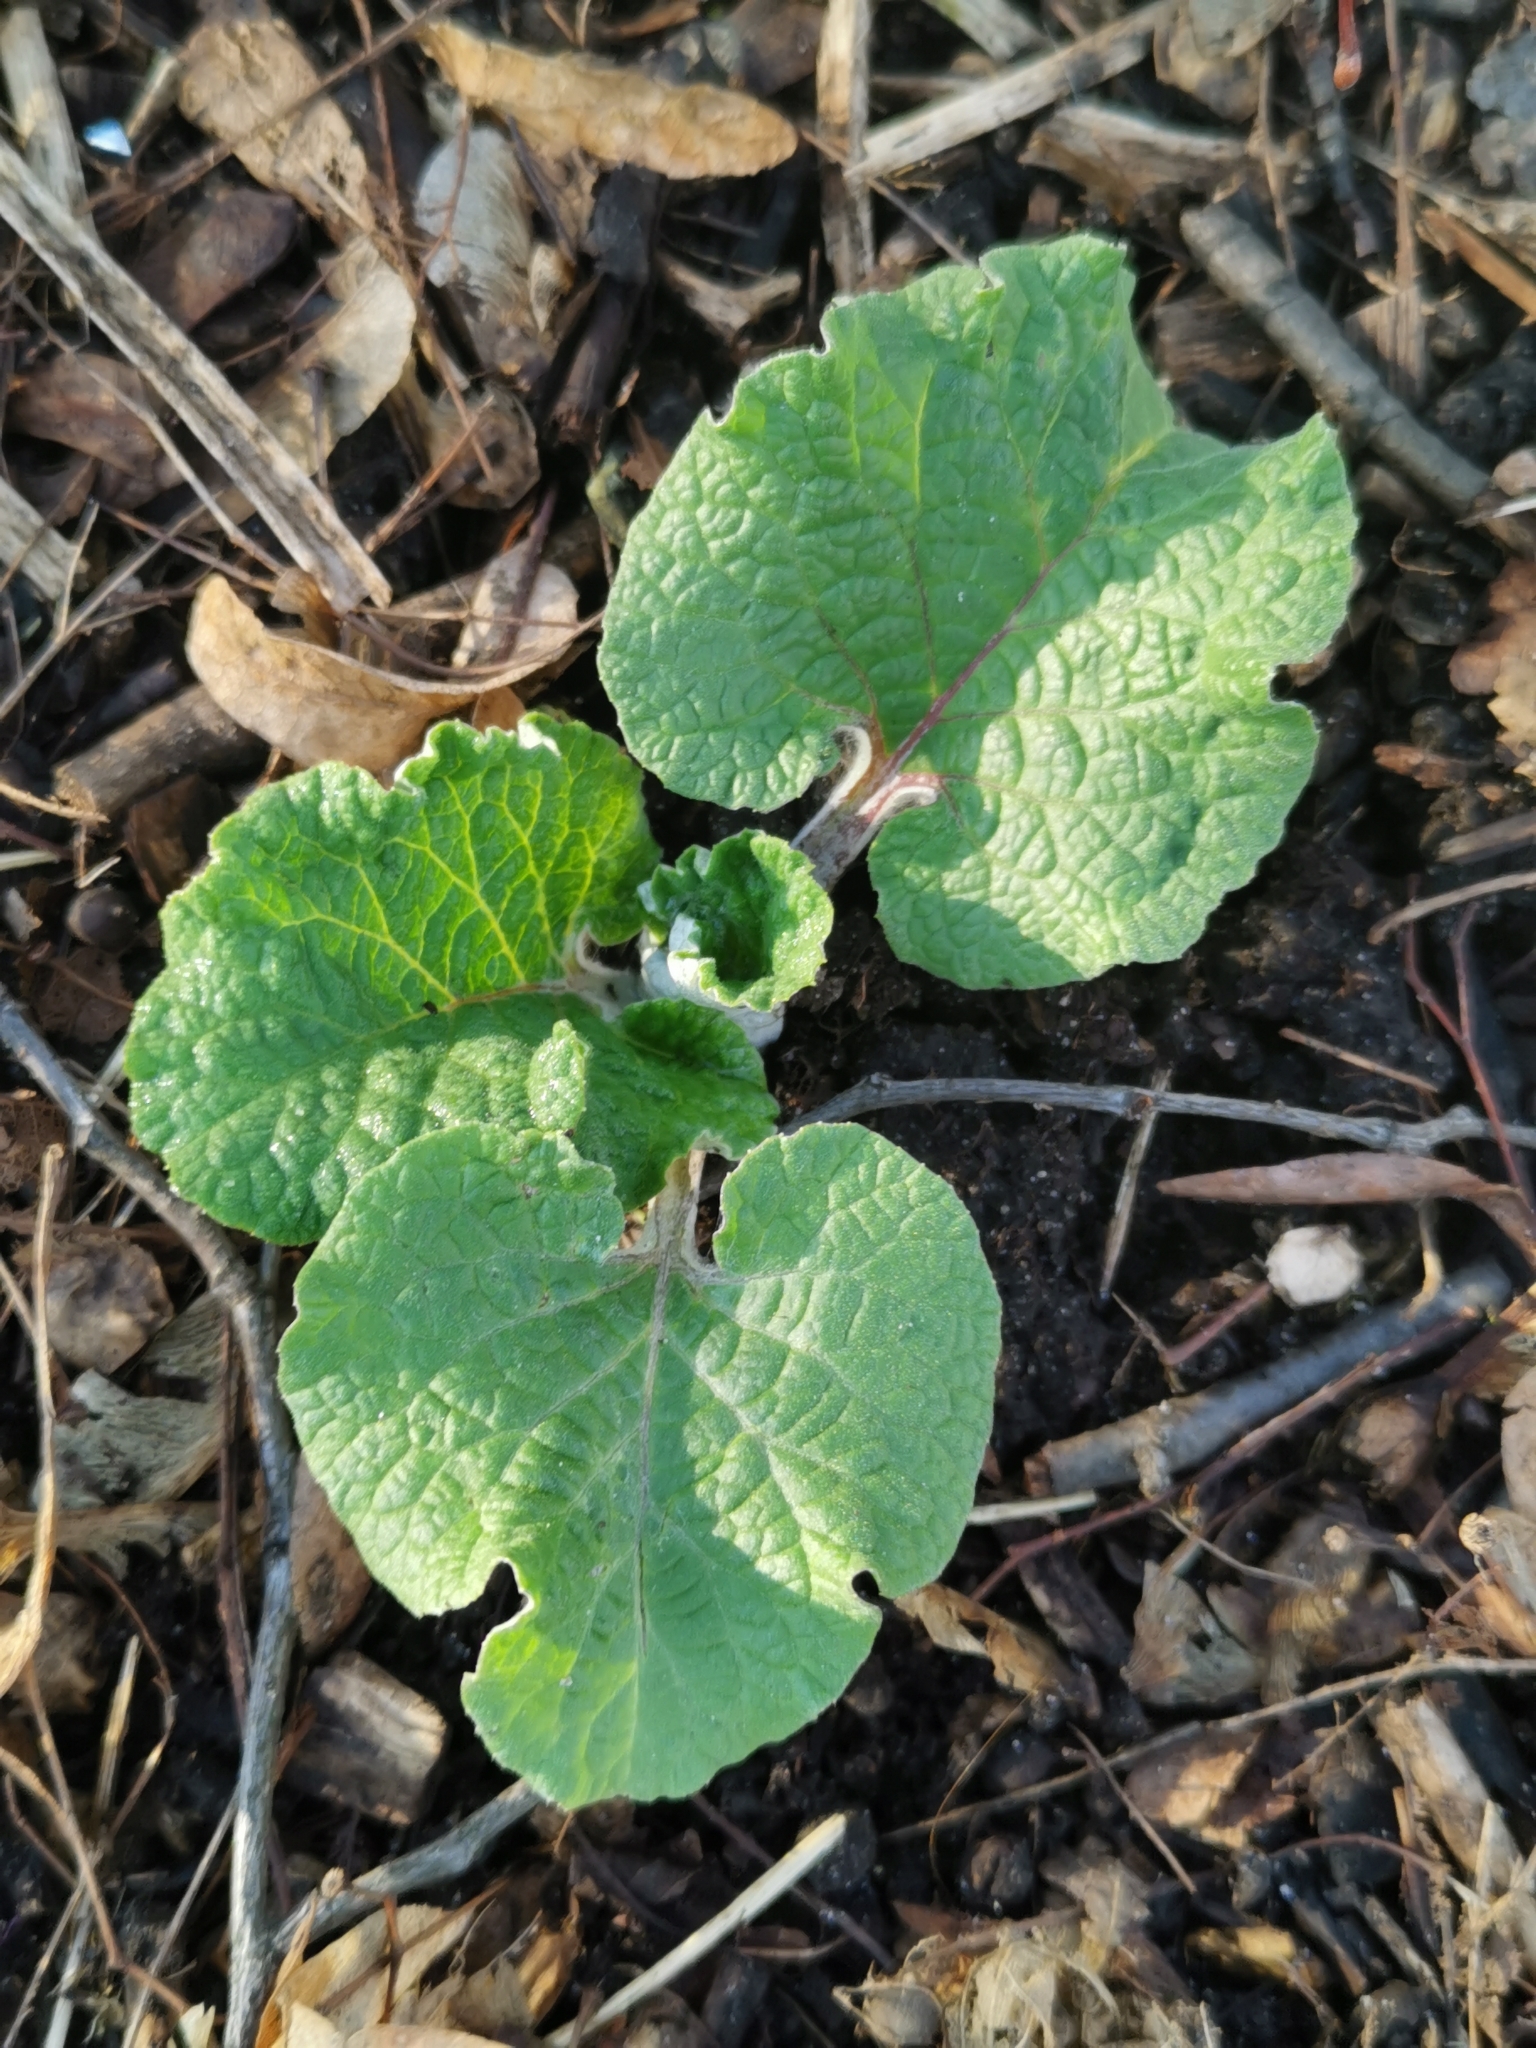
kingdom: Plantae
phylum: Tracheophyta
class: Magnoliopsida
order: Asterales
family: Asteraceae
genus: Arctium
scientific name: Arctium
